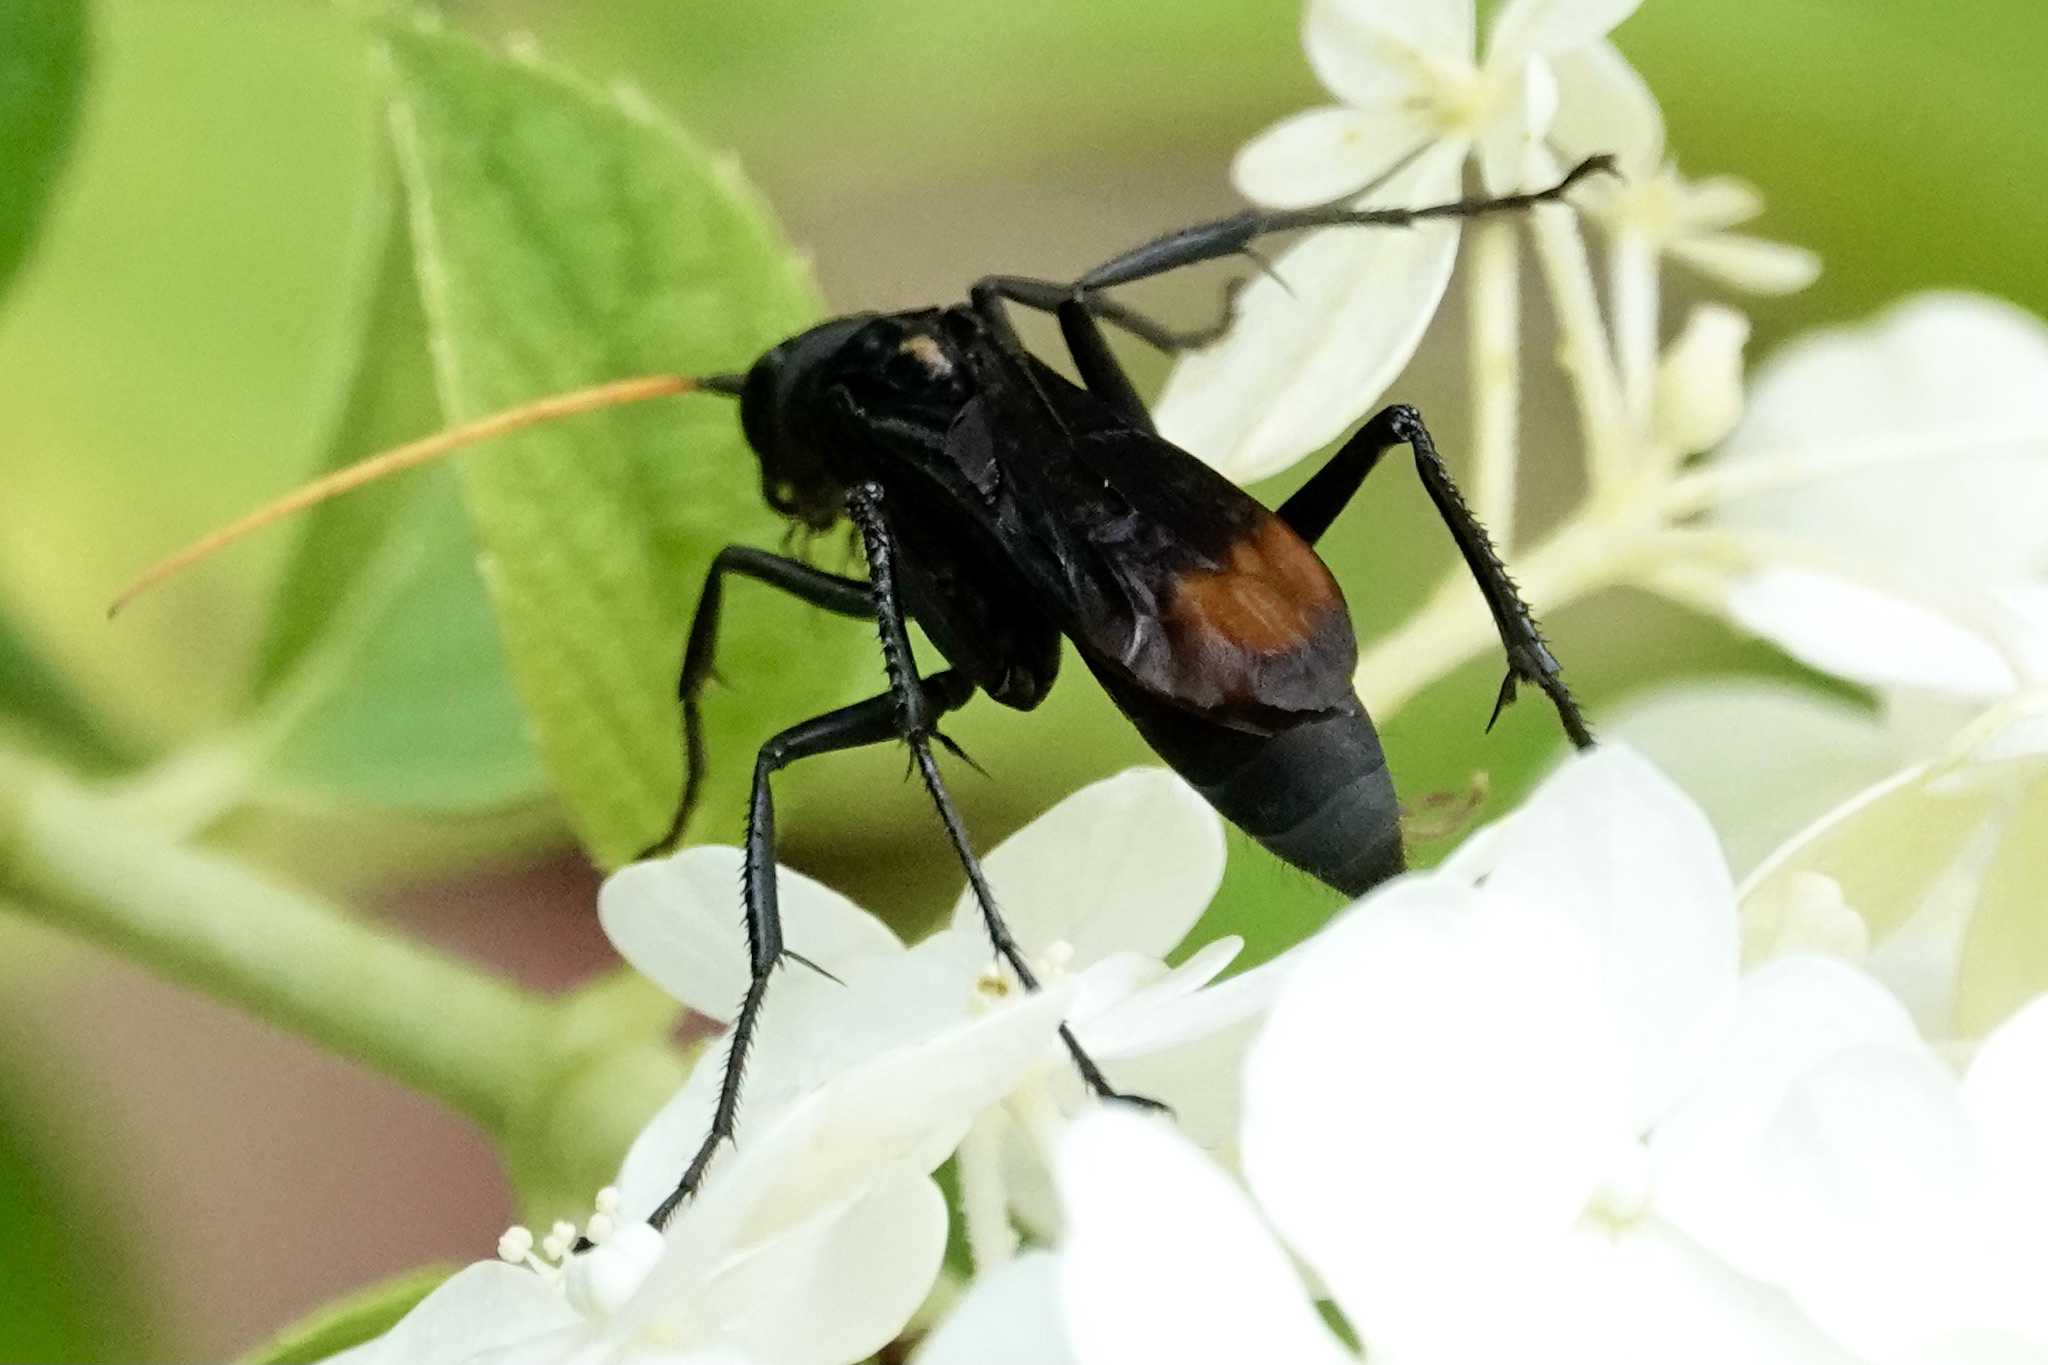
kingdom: Animalia
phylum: Arthropoda
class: Insecta
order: Hymenoptera
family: Pompilidae
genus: Entypus
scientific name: Entypus unifasciatus
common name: Eastern tawny-horned spider wasp
